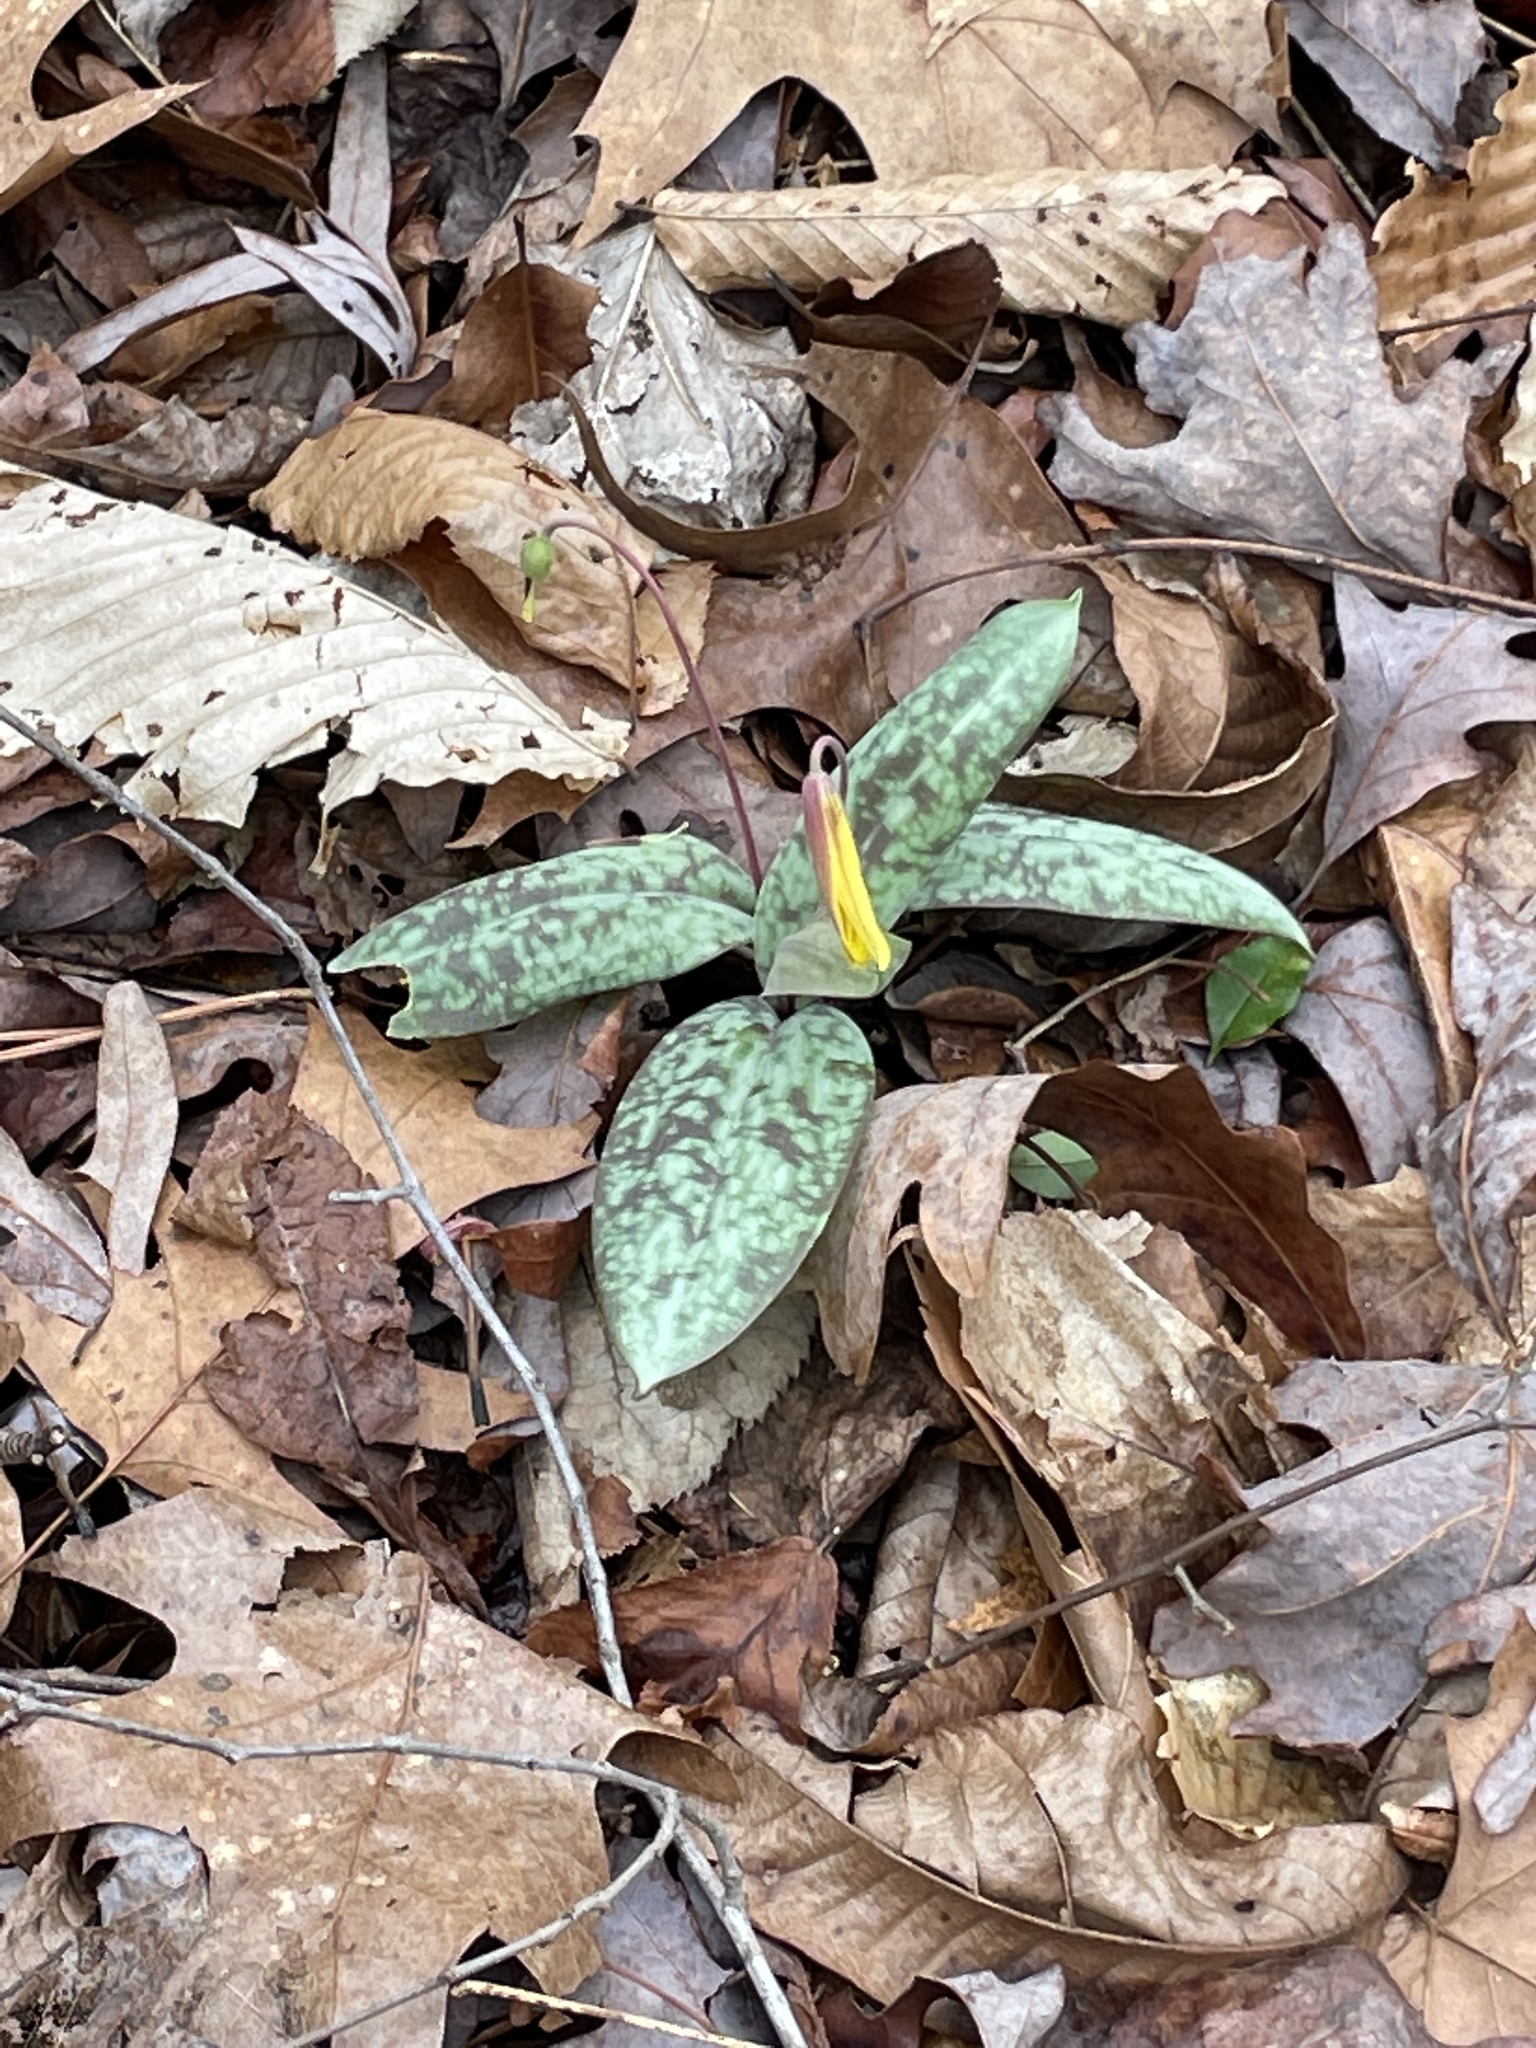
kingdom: Plantae
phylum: Tracheophyta
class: Liliopsida
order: Liliales
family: Liliaceae
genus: Erythronium
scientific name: Erythronium umbilicatum
